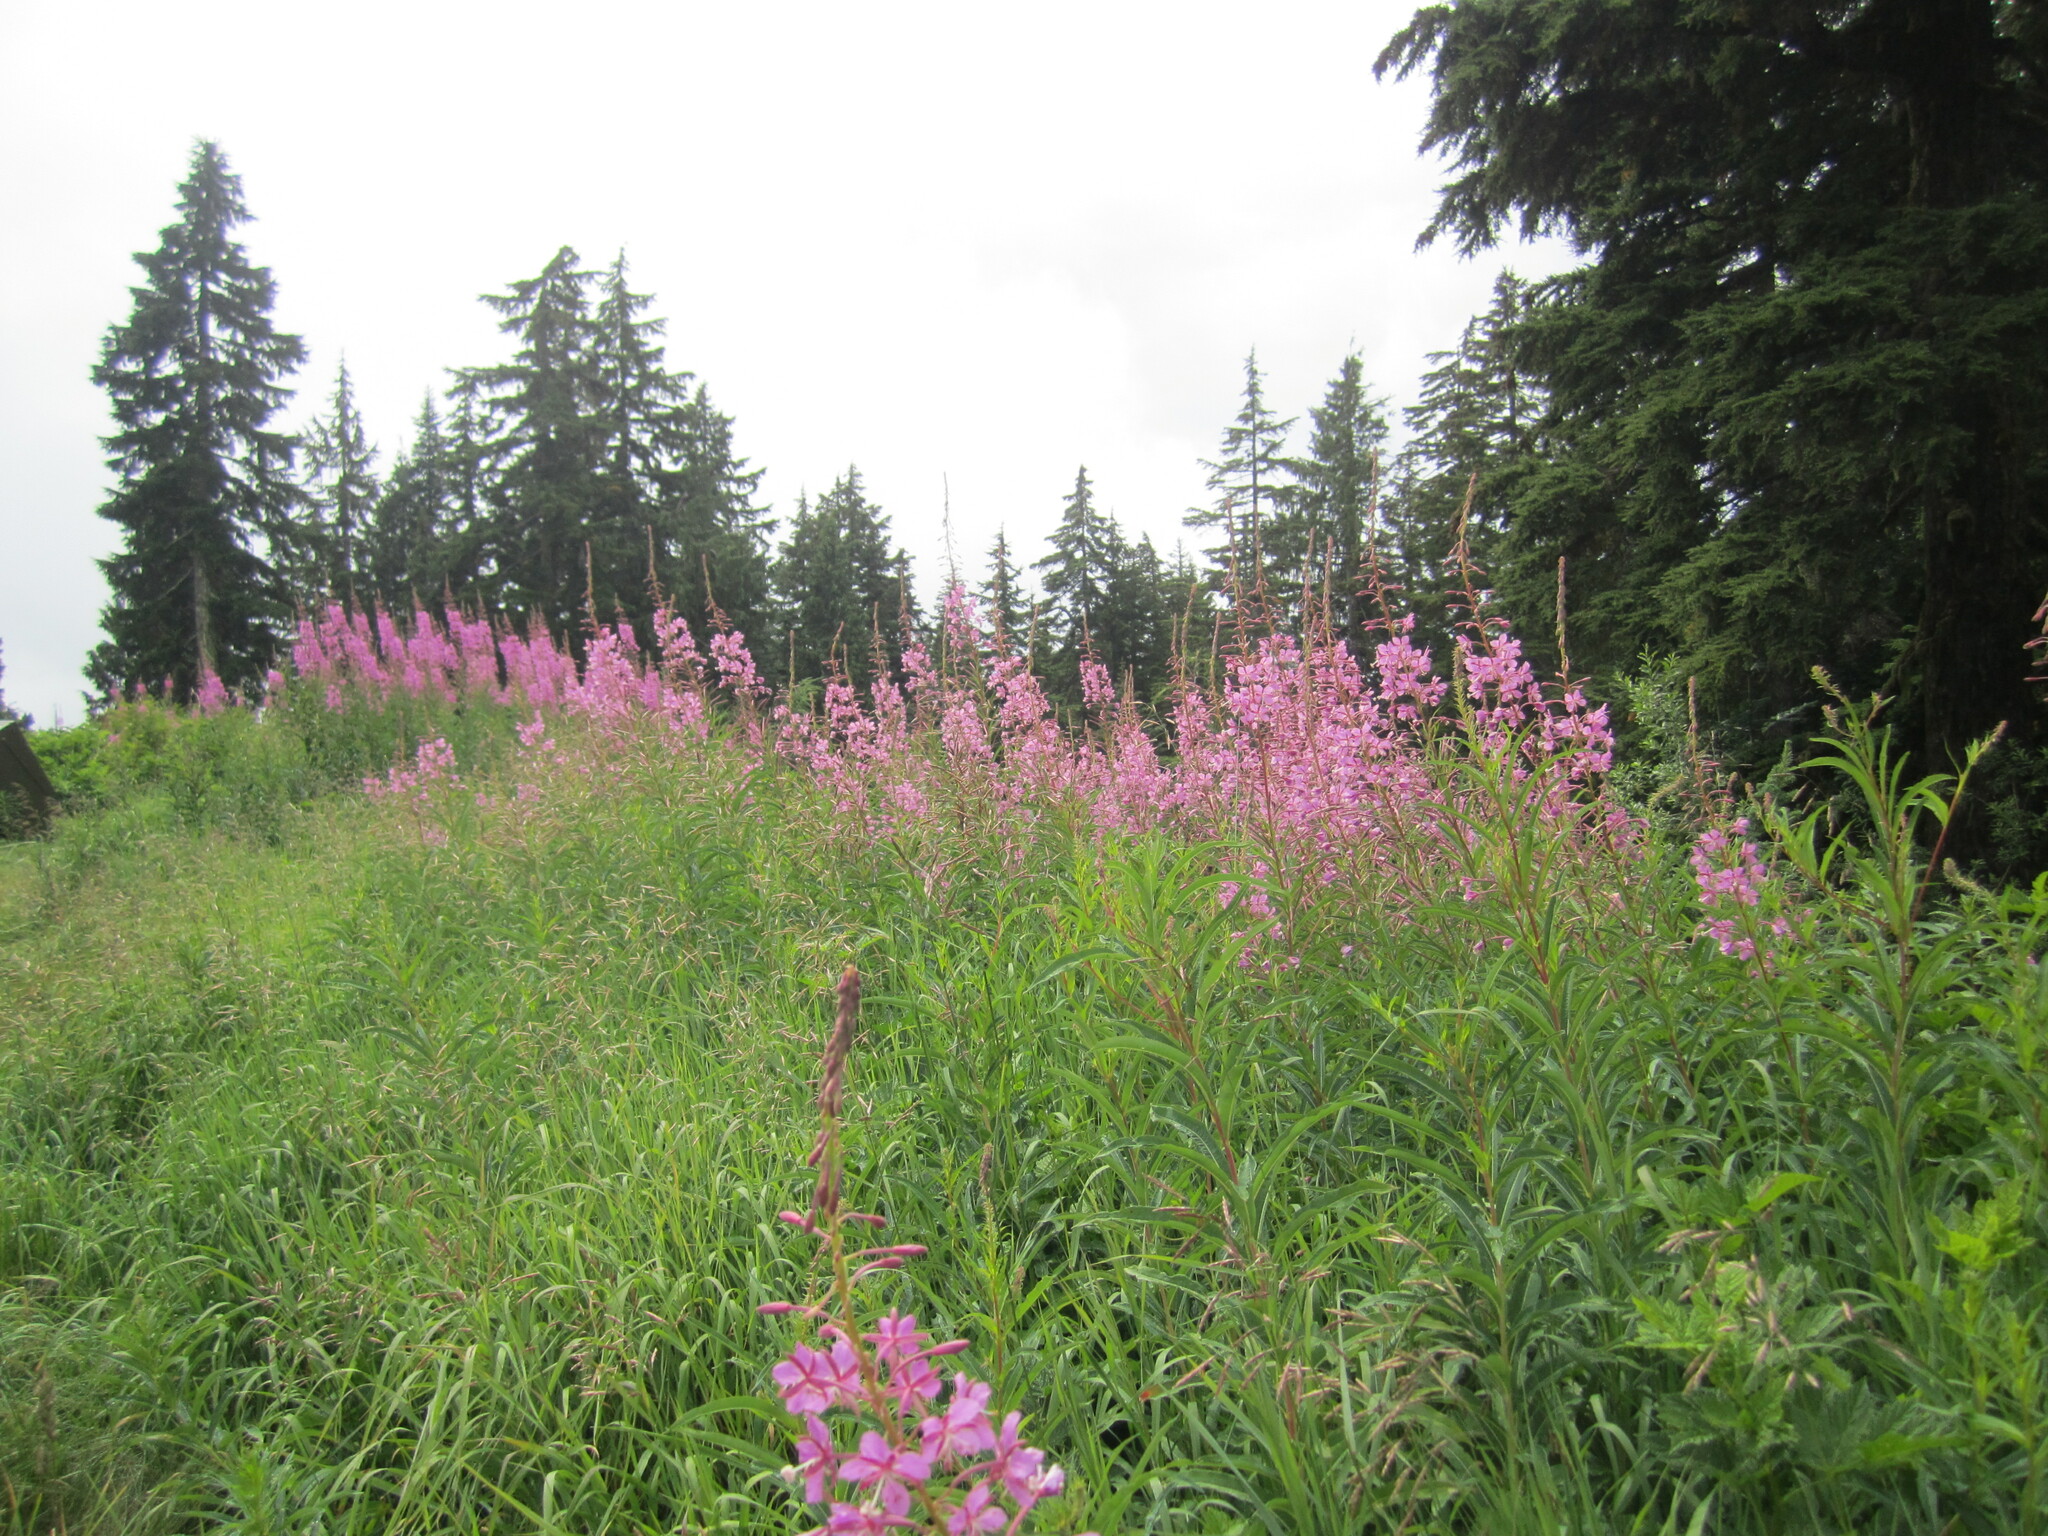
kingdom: Plantae
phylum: Tracheophyta
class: Magnoliopsida
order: Myrtales
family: Onagraceae
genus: Chamaenerion
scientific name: Chamaenerion angustifolium
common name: Fireweed
